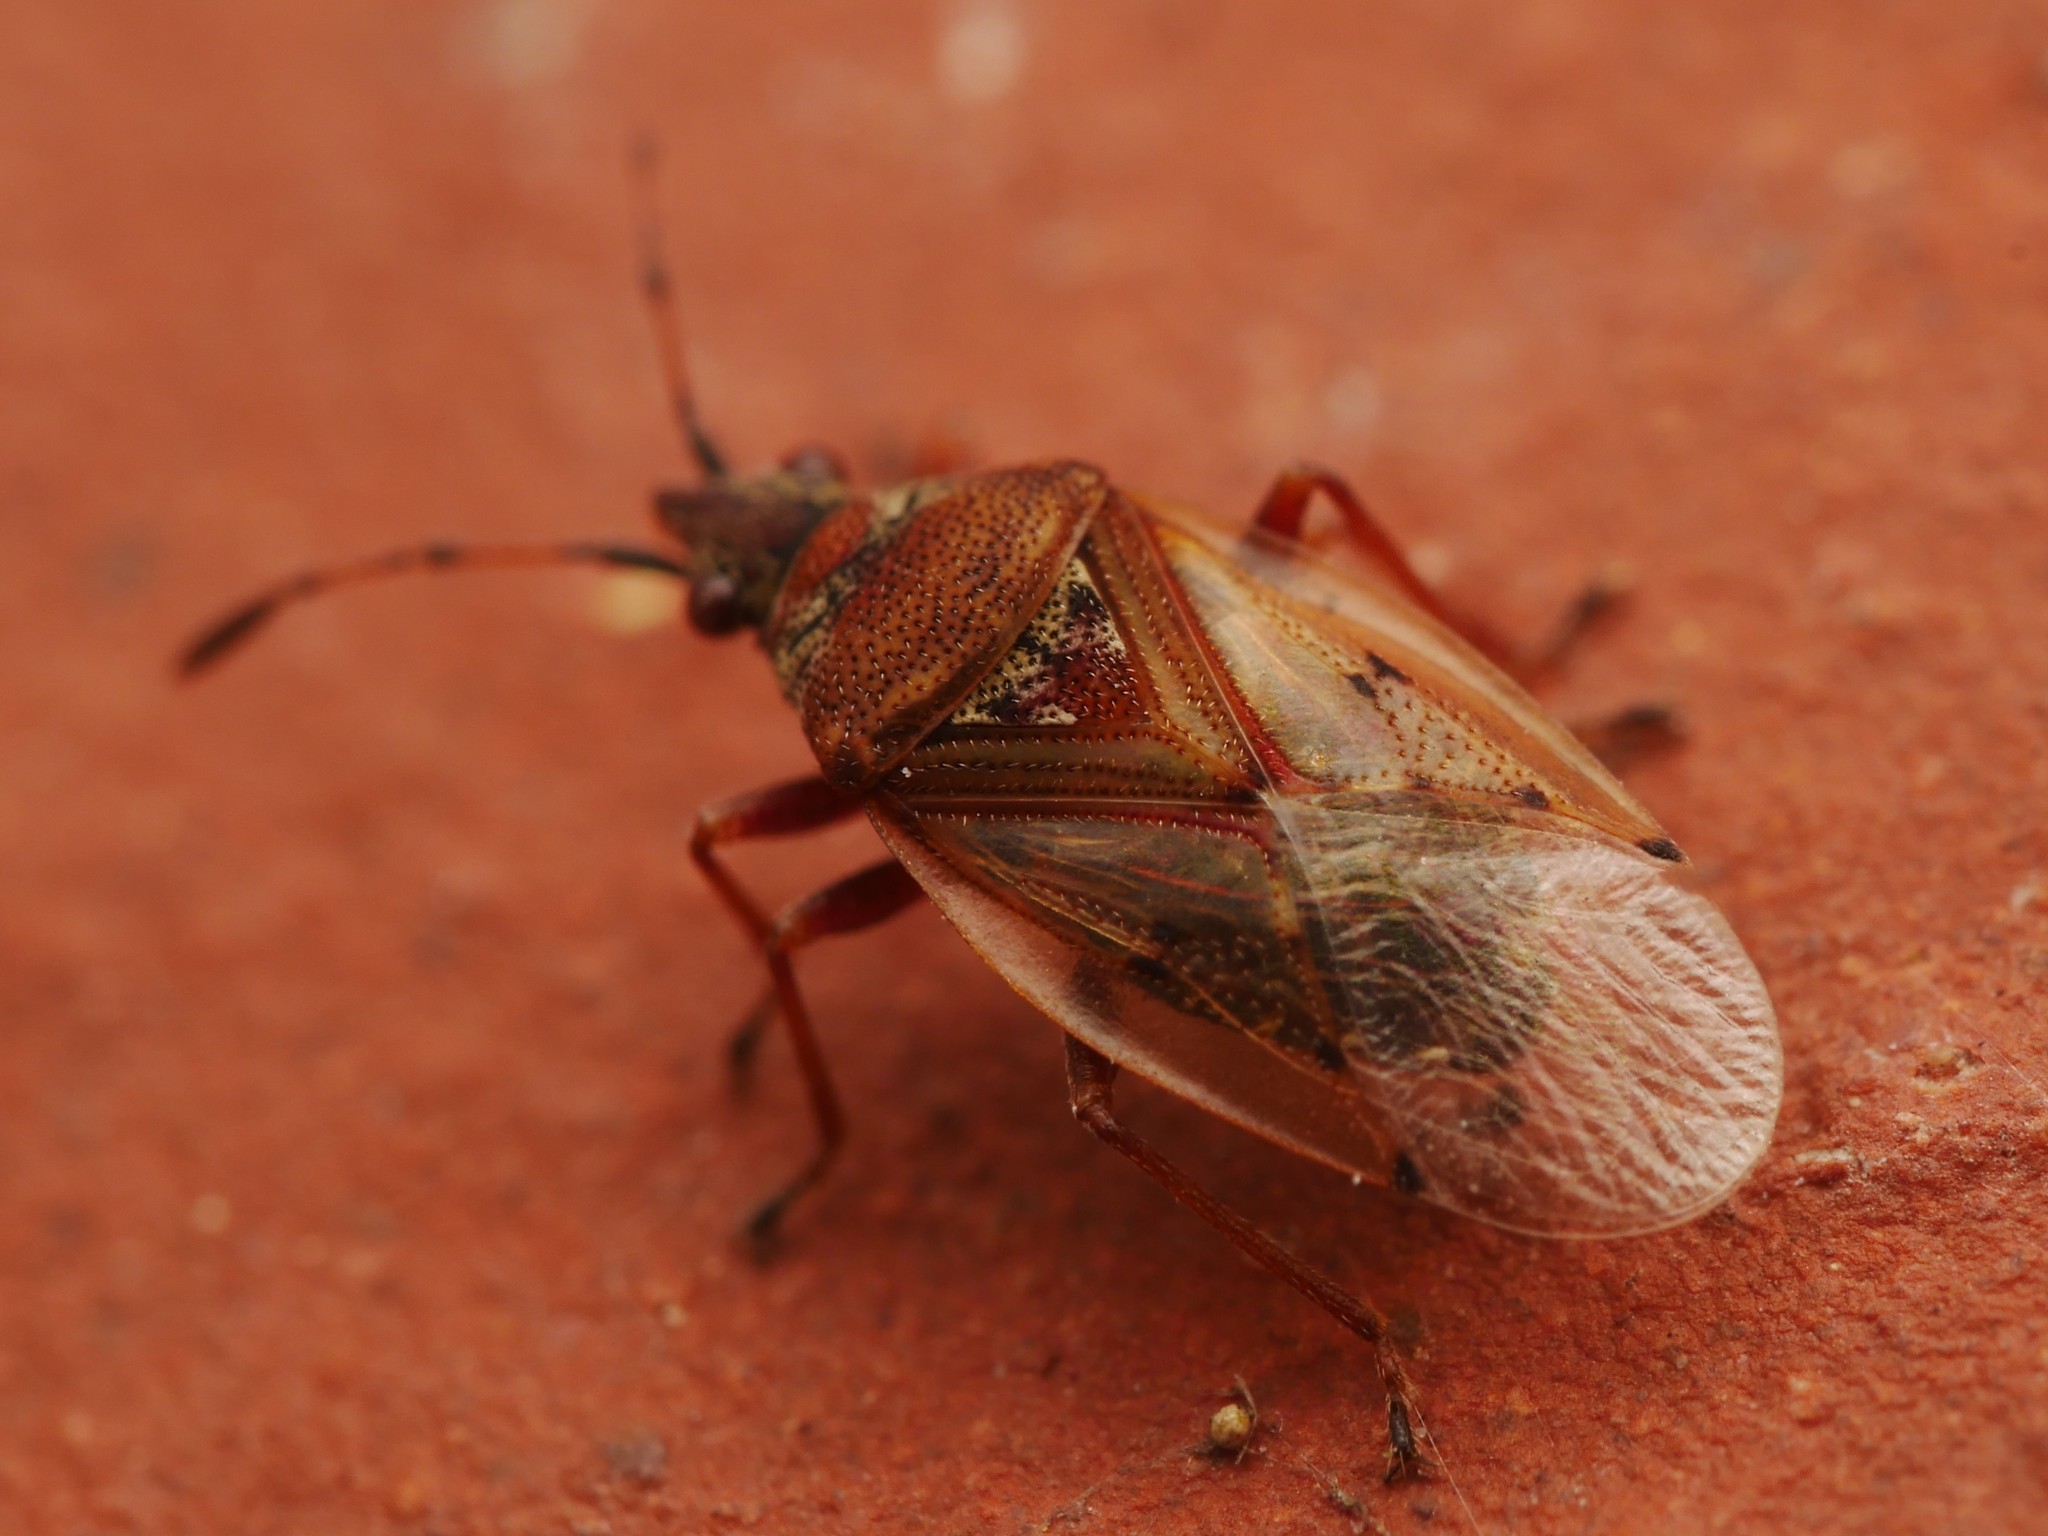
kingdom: Animalia
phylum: Arthropoda
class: Insecta
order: Hemiptera
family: Lygaeidae
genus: Kleidocerys
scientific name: Kleidocerys resedae
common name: Birch catkin bug
